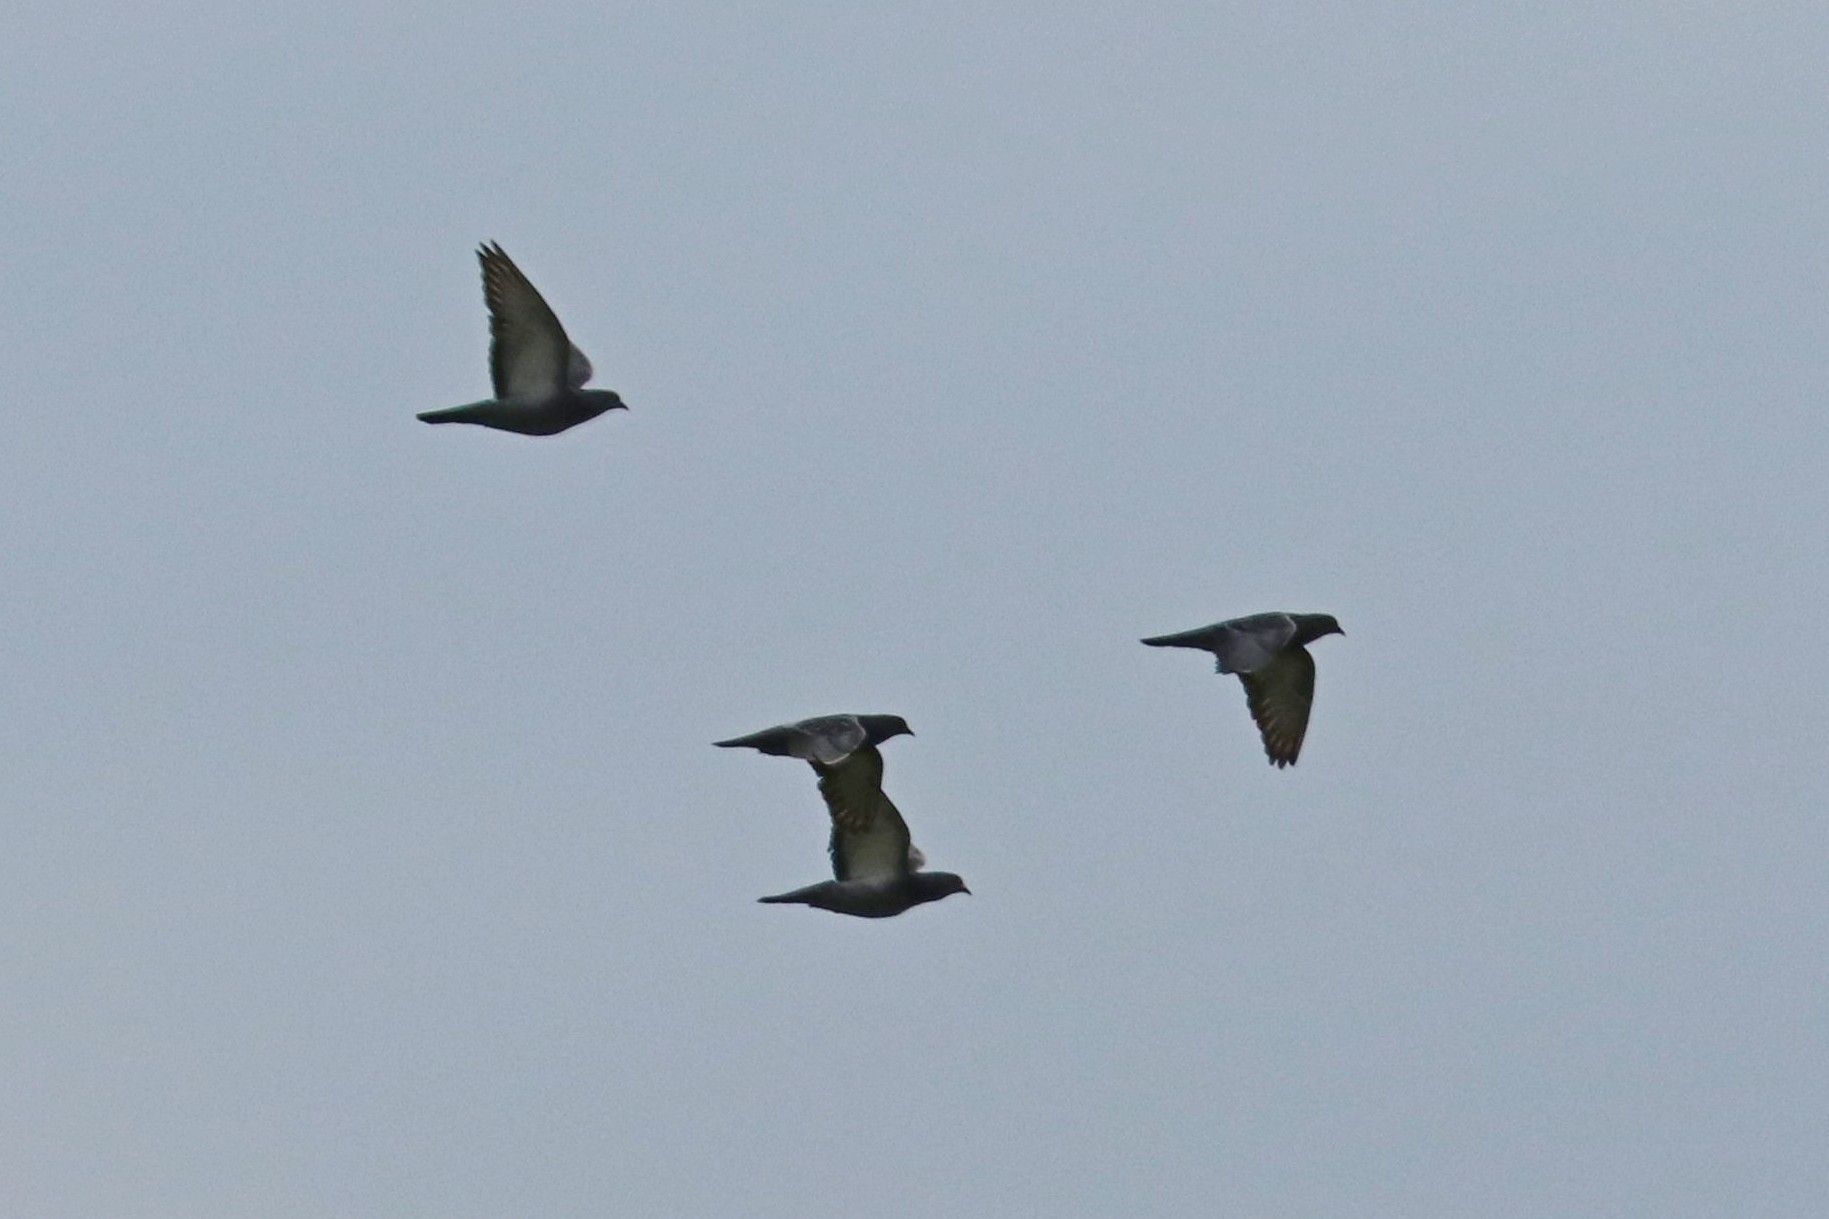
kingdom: Animalia
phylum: Chordata
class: Aves
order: Columbiformes
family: Columbidae
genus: Columba
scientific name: Columba livia
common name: Rock pigeon
